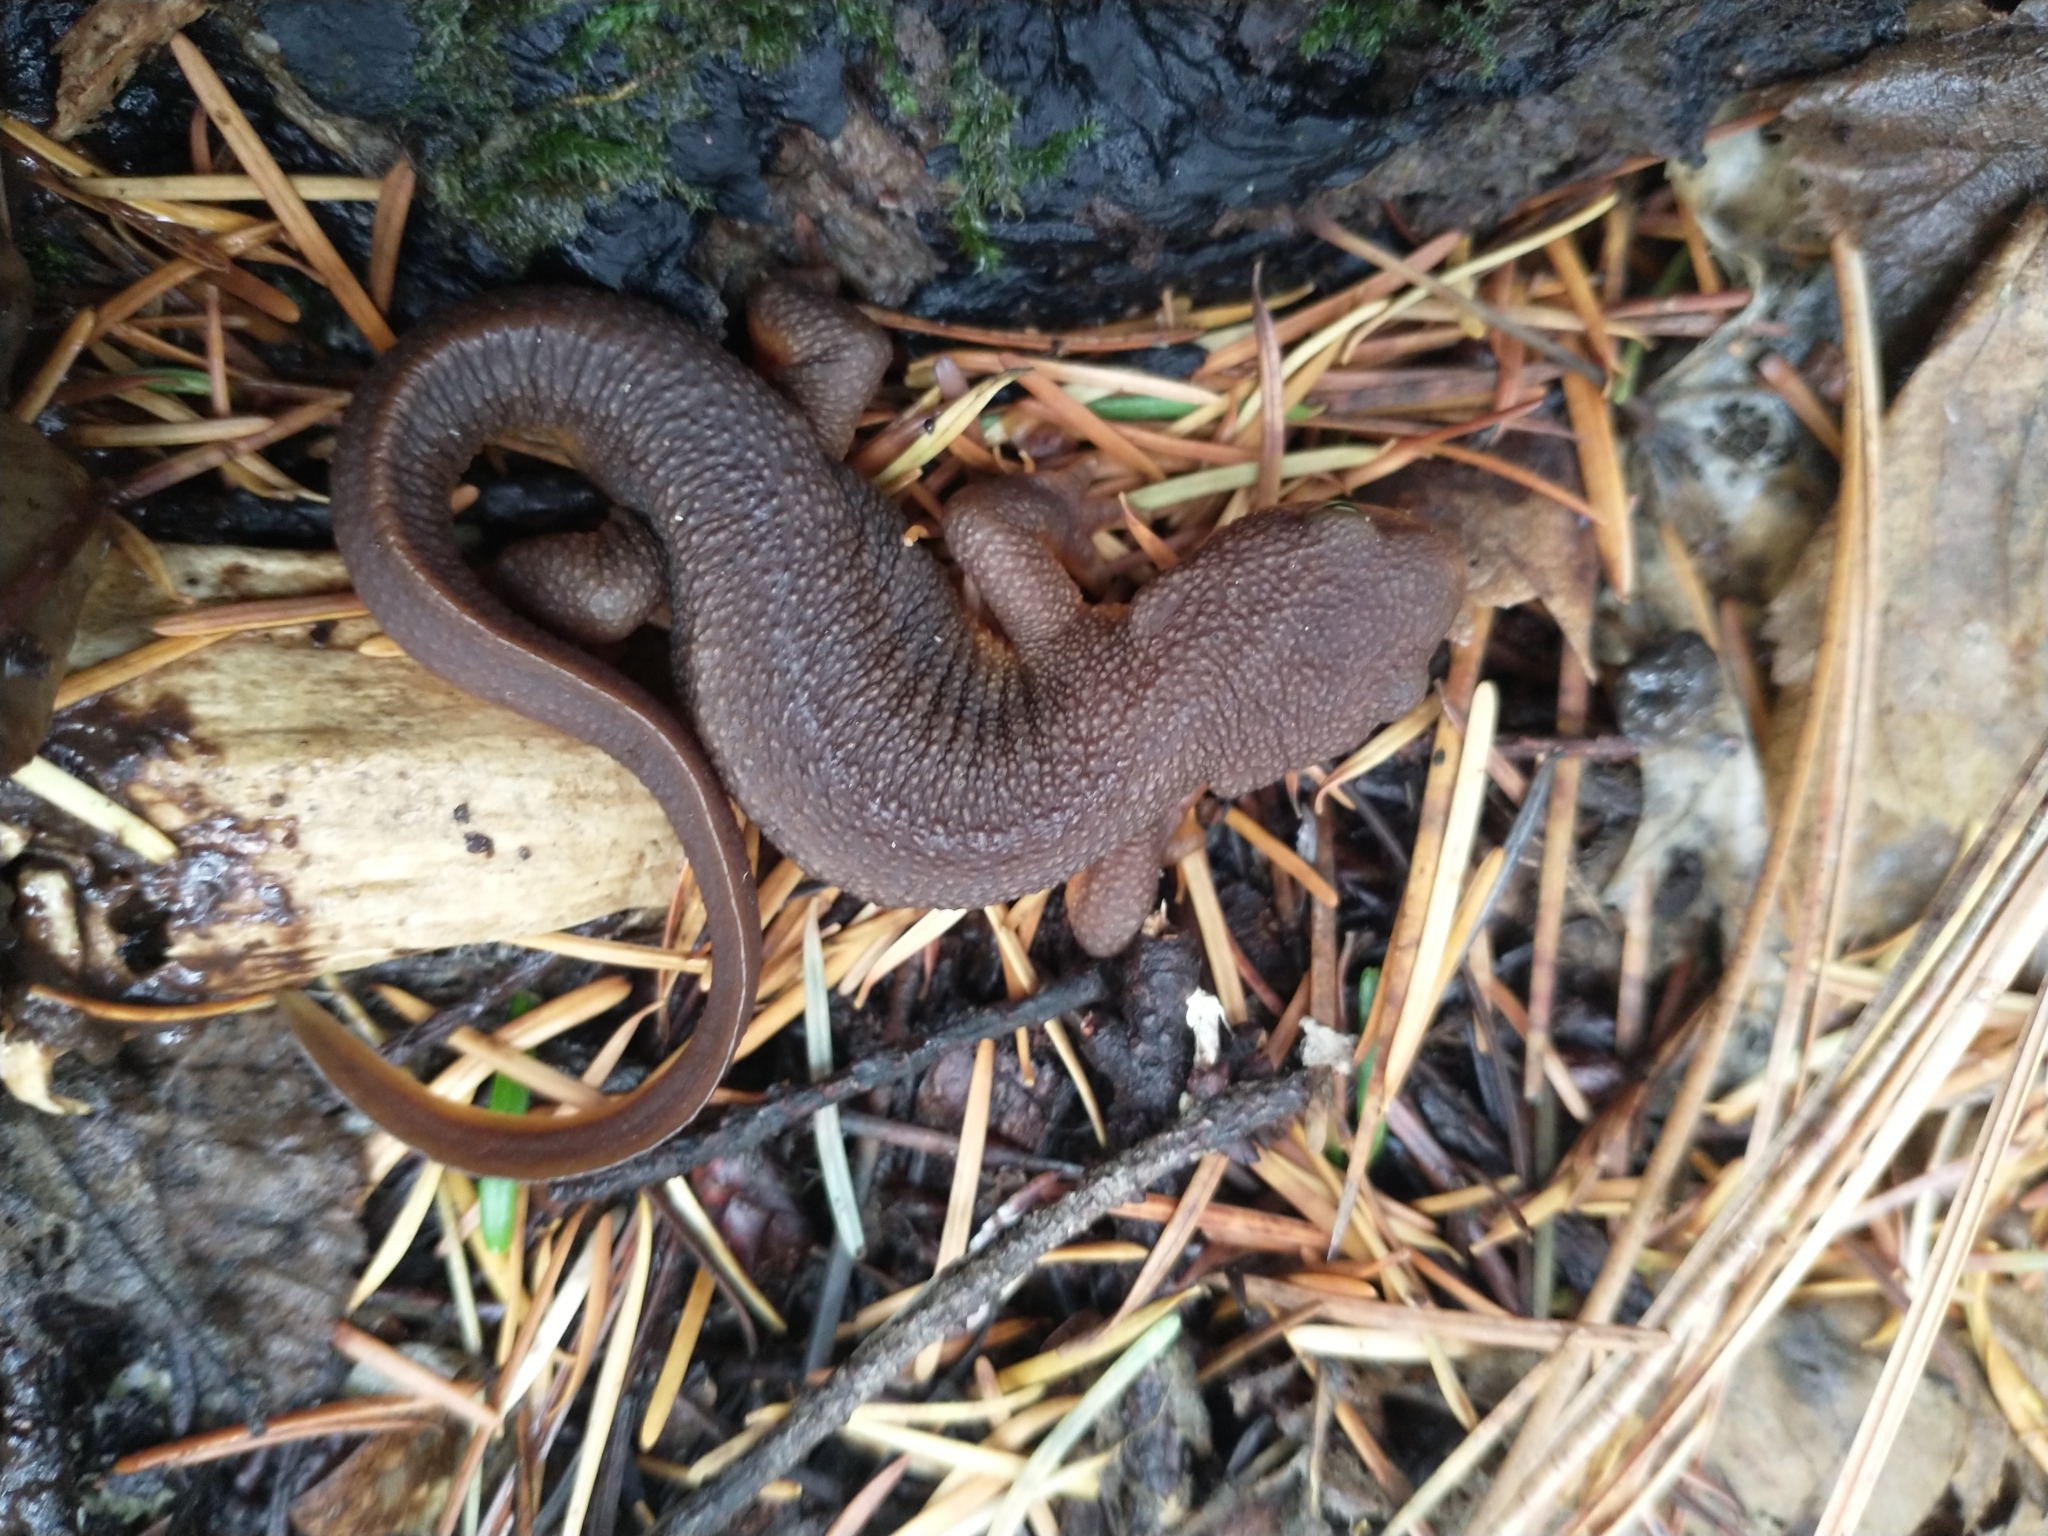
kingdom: Animalia
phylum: Chordata
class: Amphibia
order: Caudata
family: Salamandridae
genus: Taricha
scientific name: Taricha granulosa
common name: Roughskin newt
